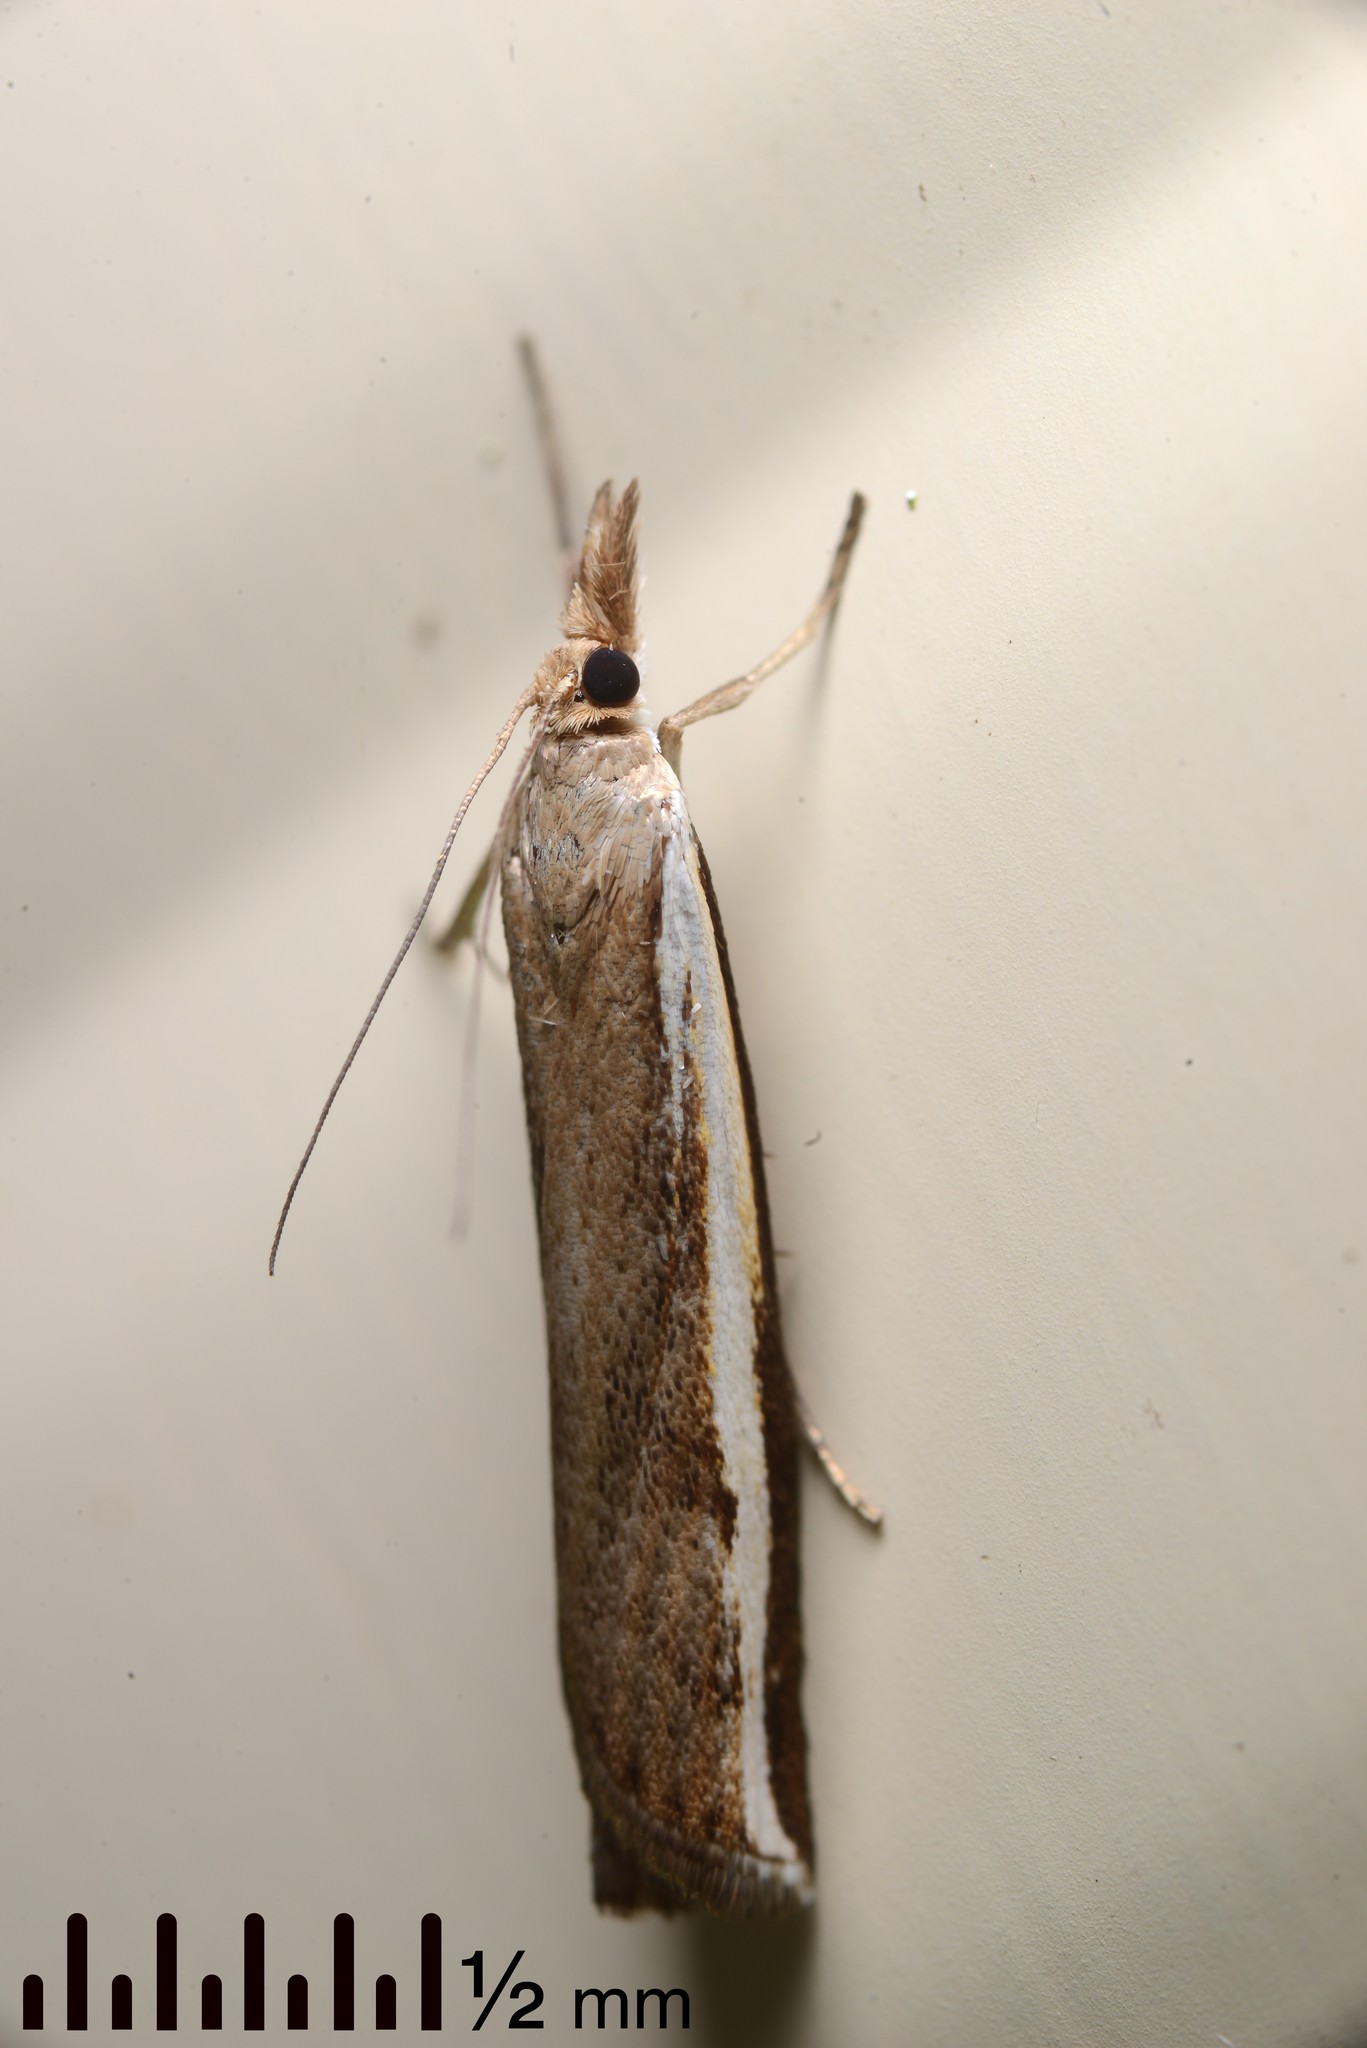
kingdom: Animalia
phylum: Arthropoda
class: Insecta
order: Lepidoptera
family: Crambidae
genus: Orocrambus
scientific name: Orocrambus flexuosellus
